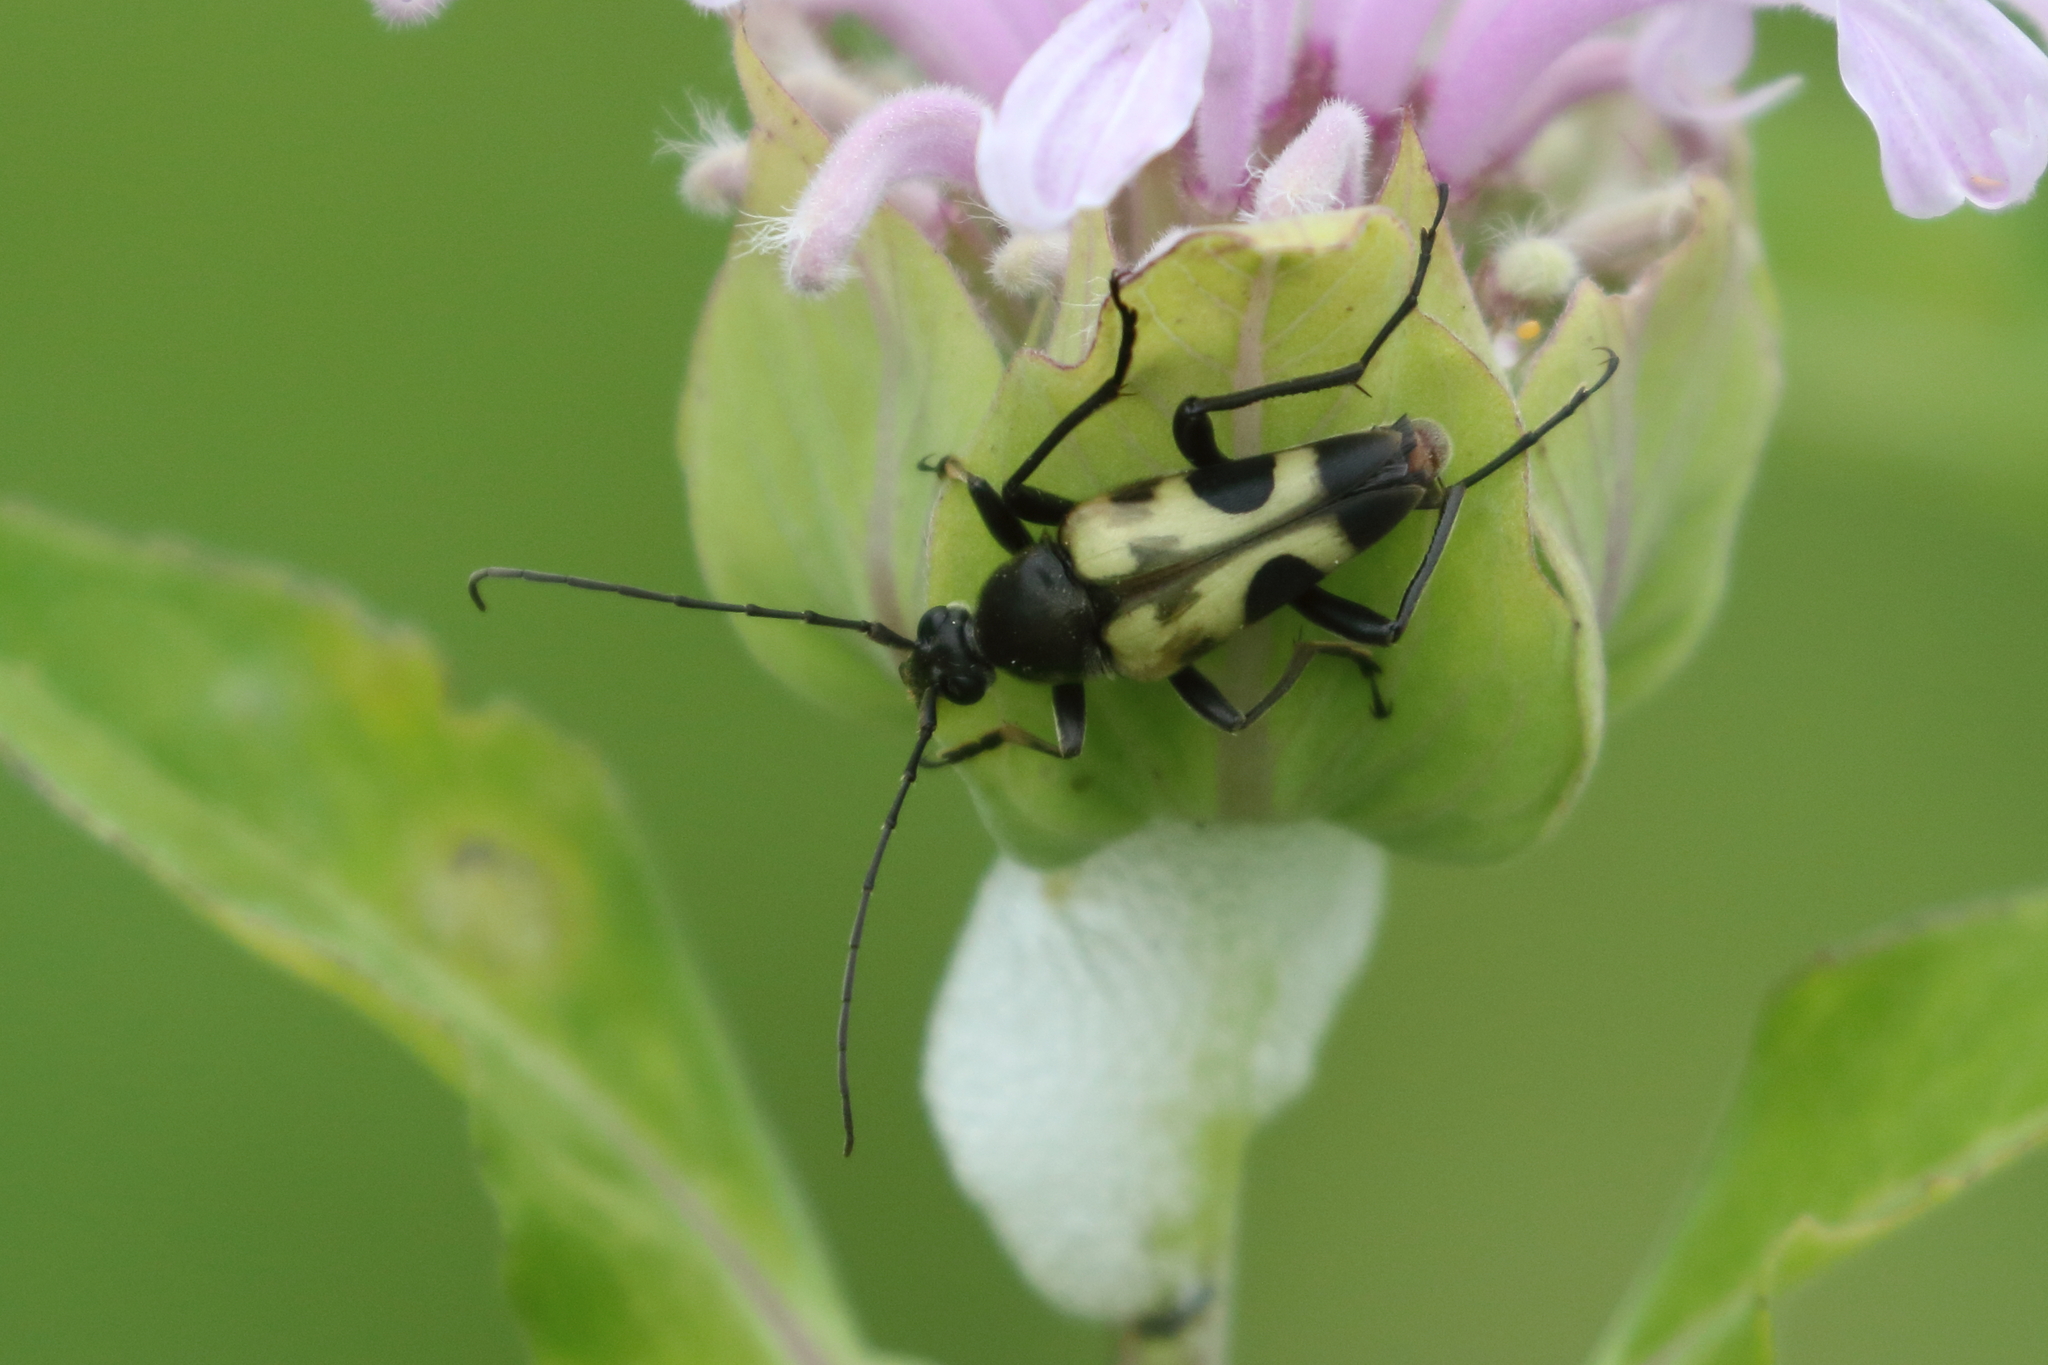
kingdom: Animalia
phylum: Arthropoda
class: Insecta
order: Coleoptera
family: Cerambycidae
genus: Judolia
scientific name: Judolia cordifera
